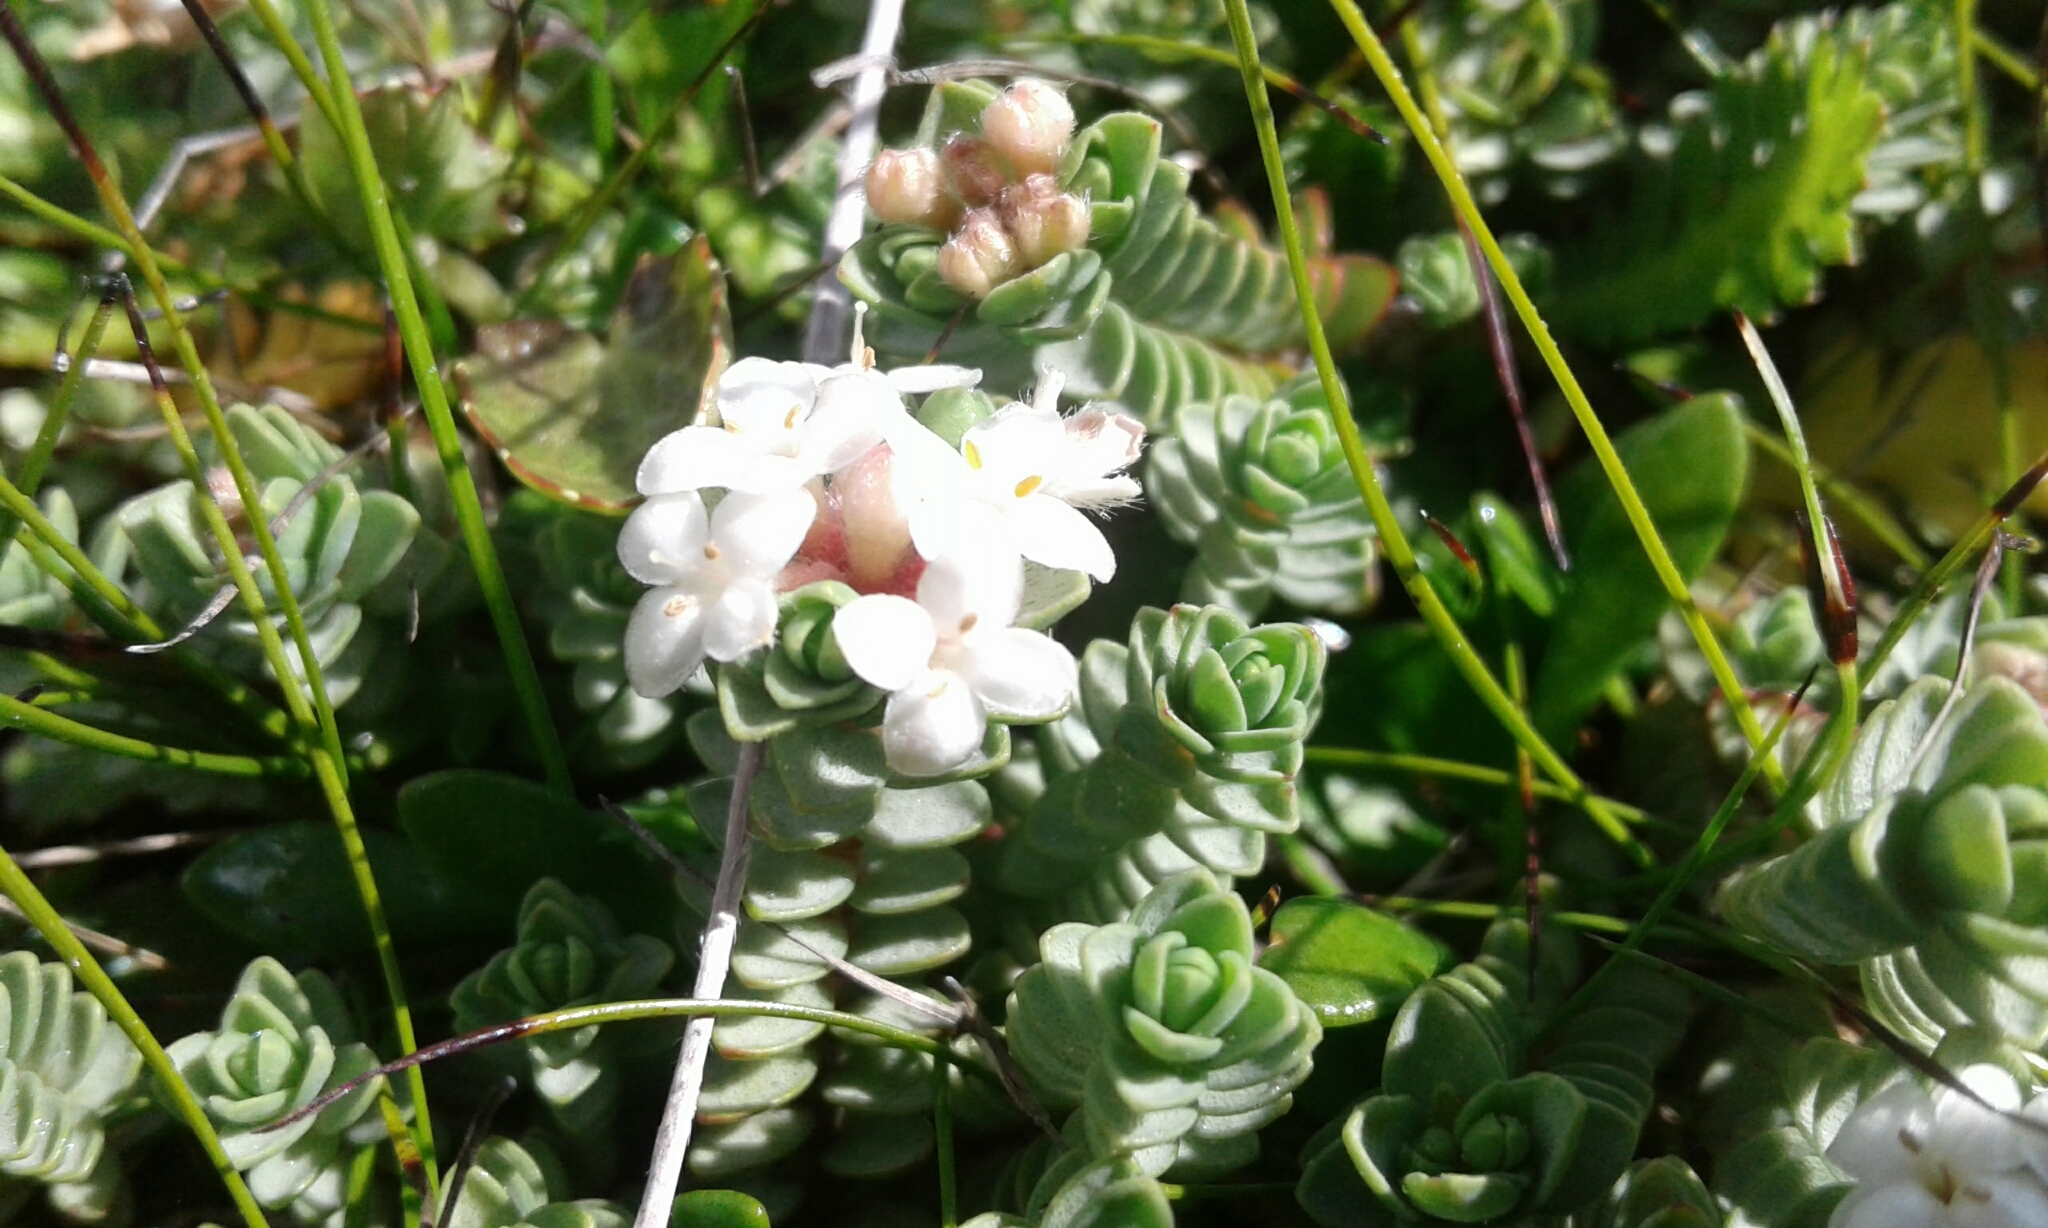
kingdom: Plantae
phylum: Tracheophyta
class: Magnoliopsida
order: Malvales
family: Thymelaeaceae
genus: Pimelea
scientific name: Pimelea prostrata
